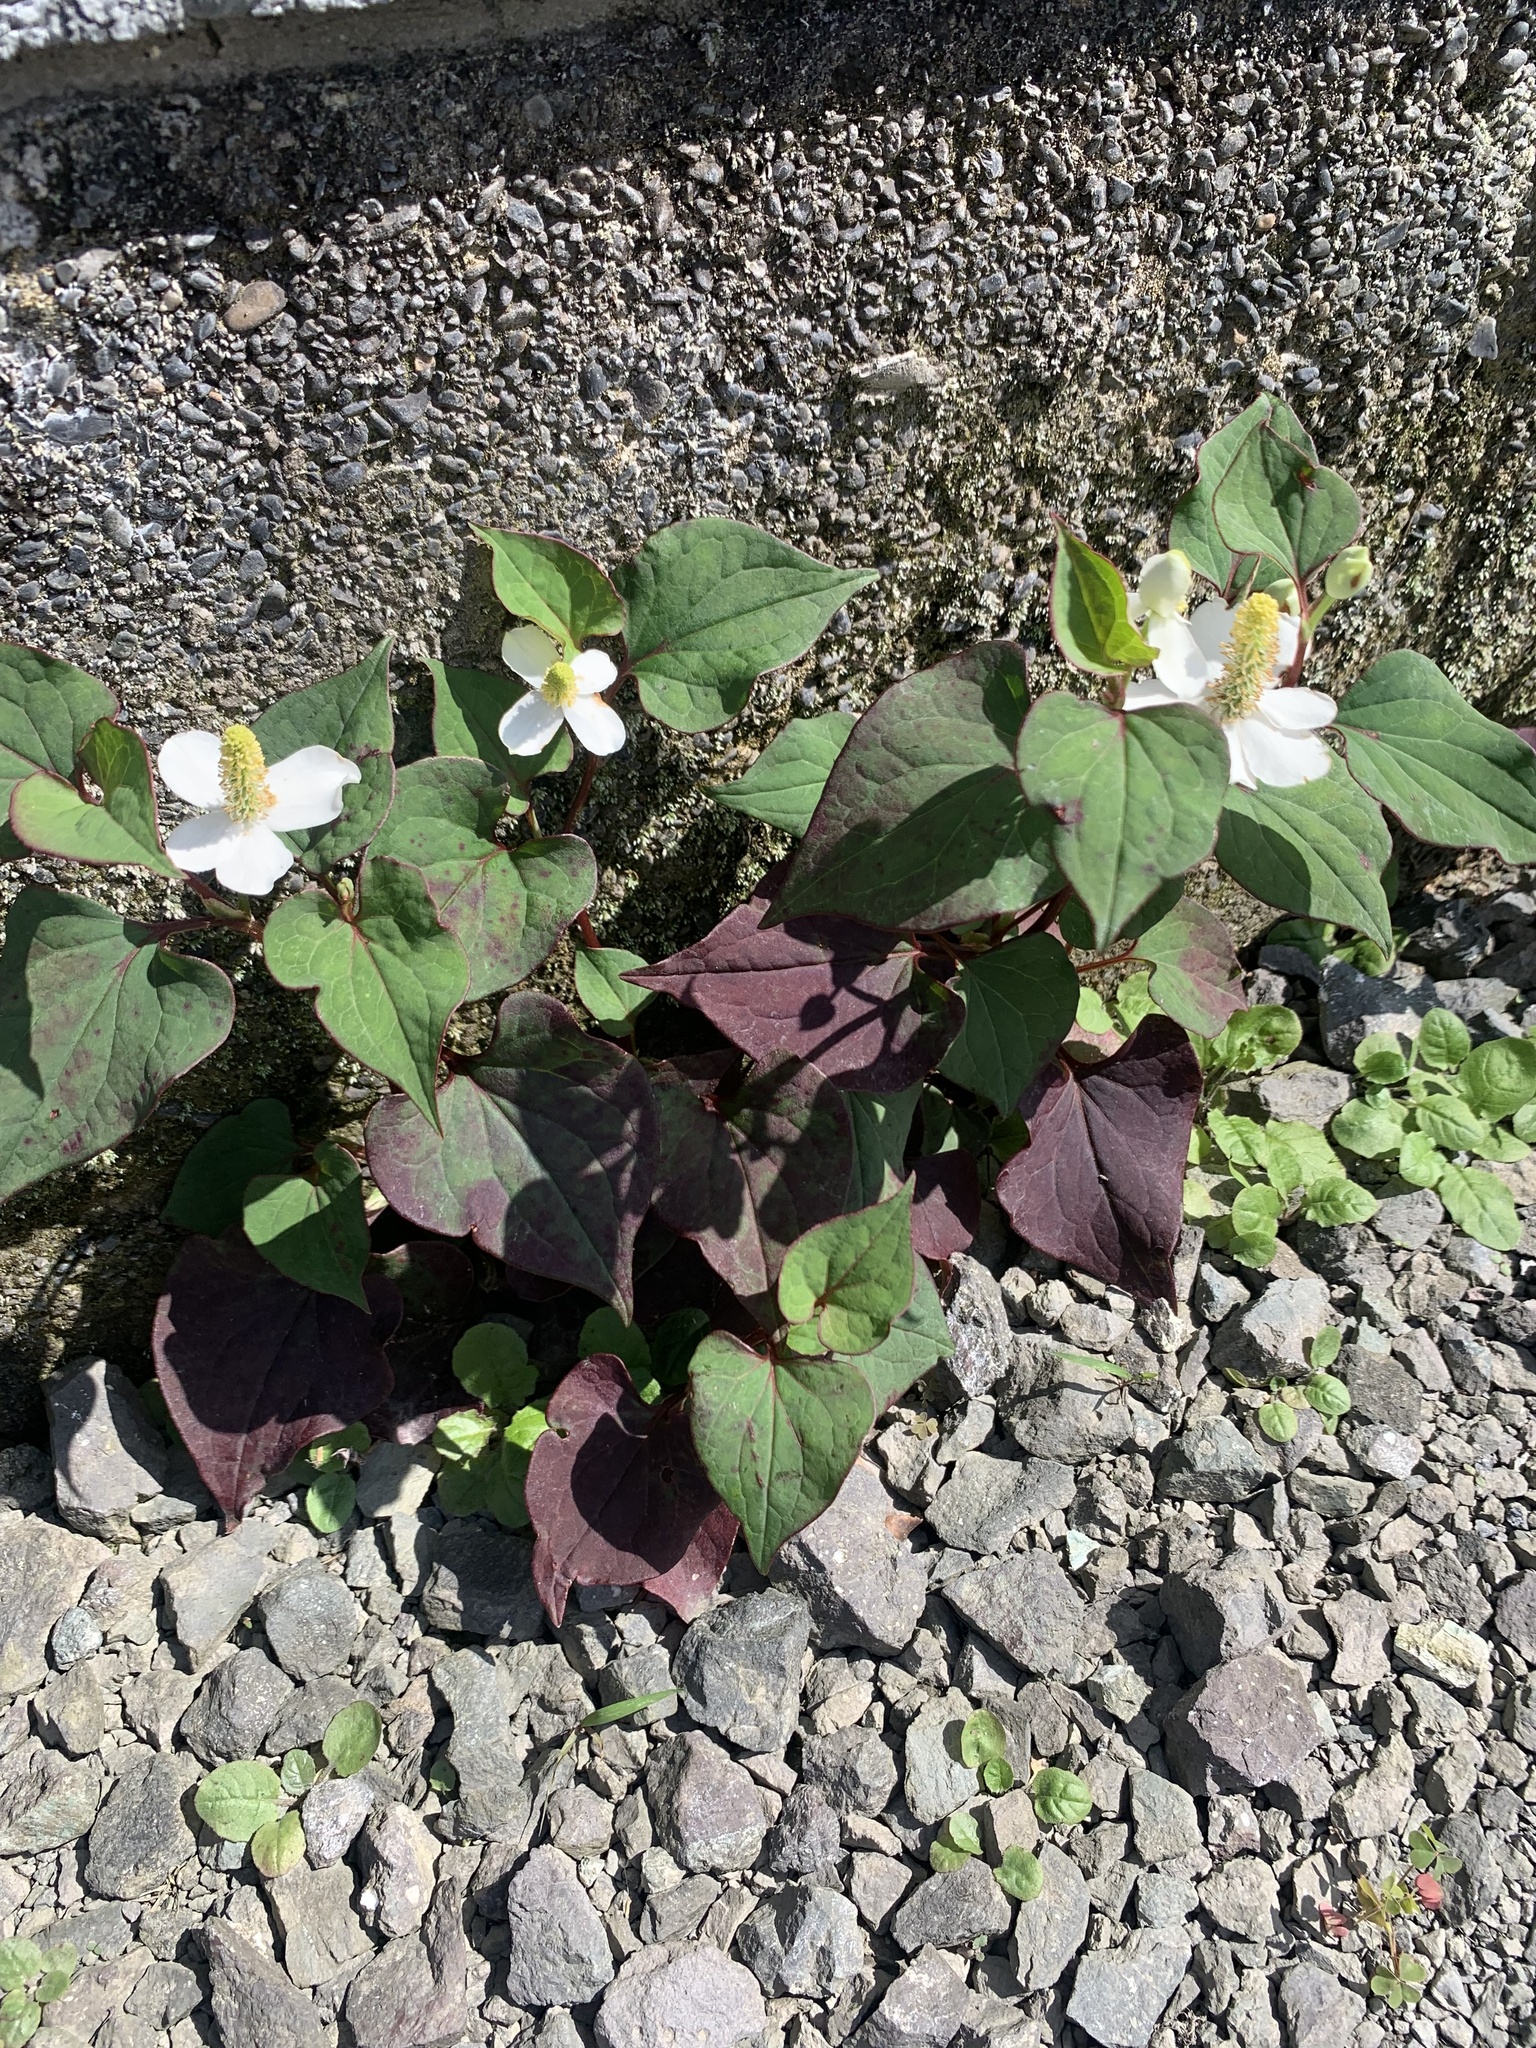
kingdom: Plantae
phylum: Tracheophyta
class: Magnoliopsida
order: Piperales
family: Saururaceae
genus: Houttuynia
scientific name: Houttuynia cordata
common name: Chameleon
